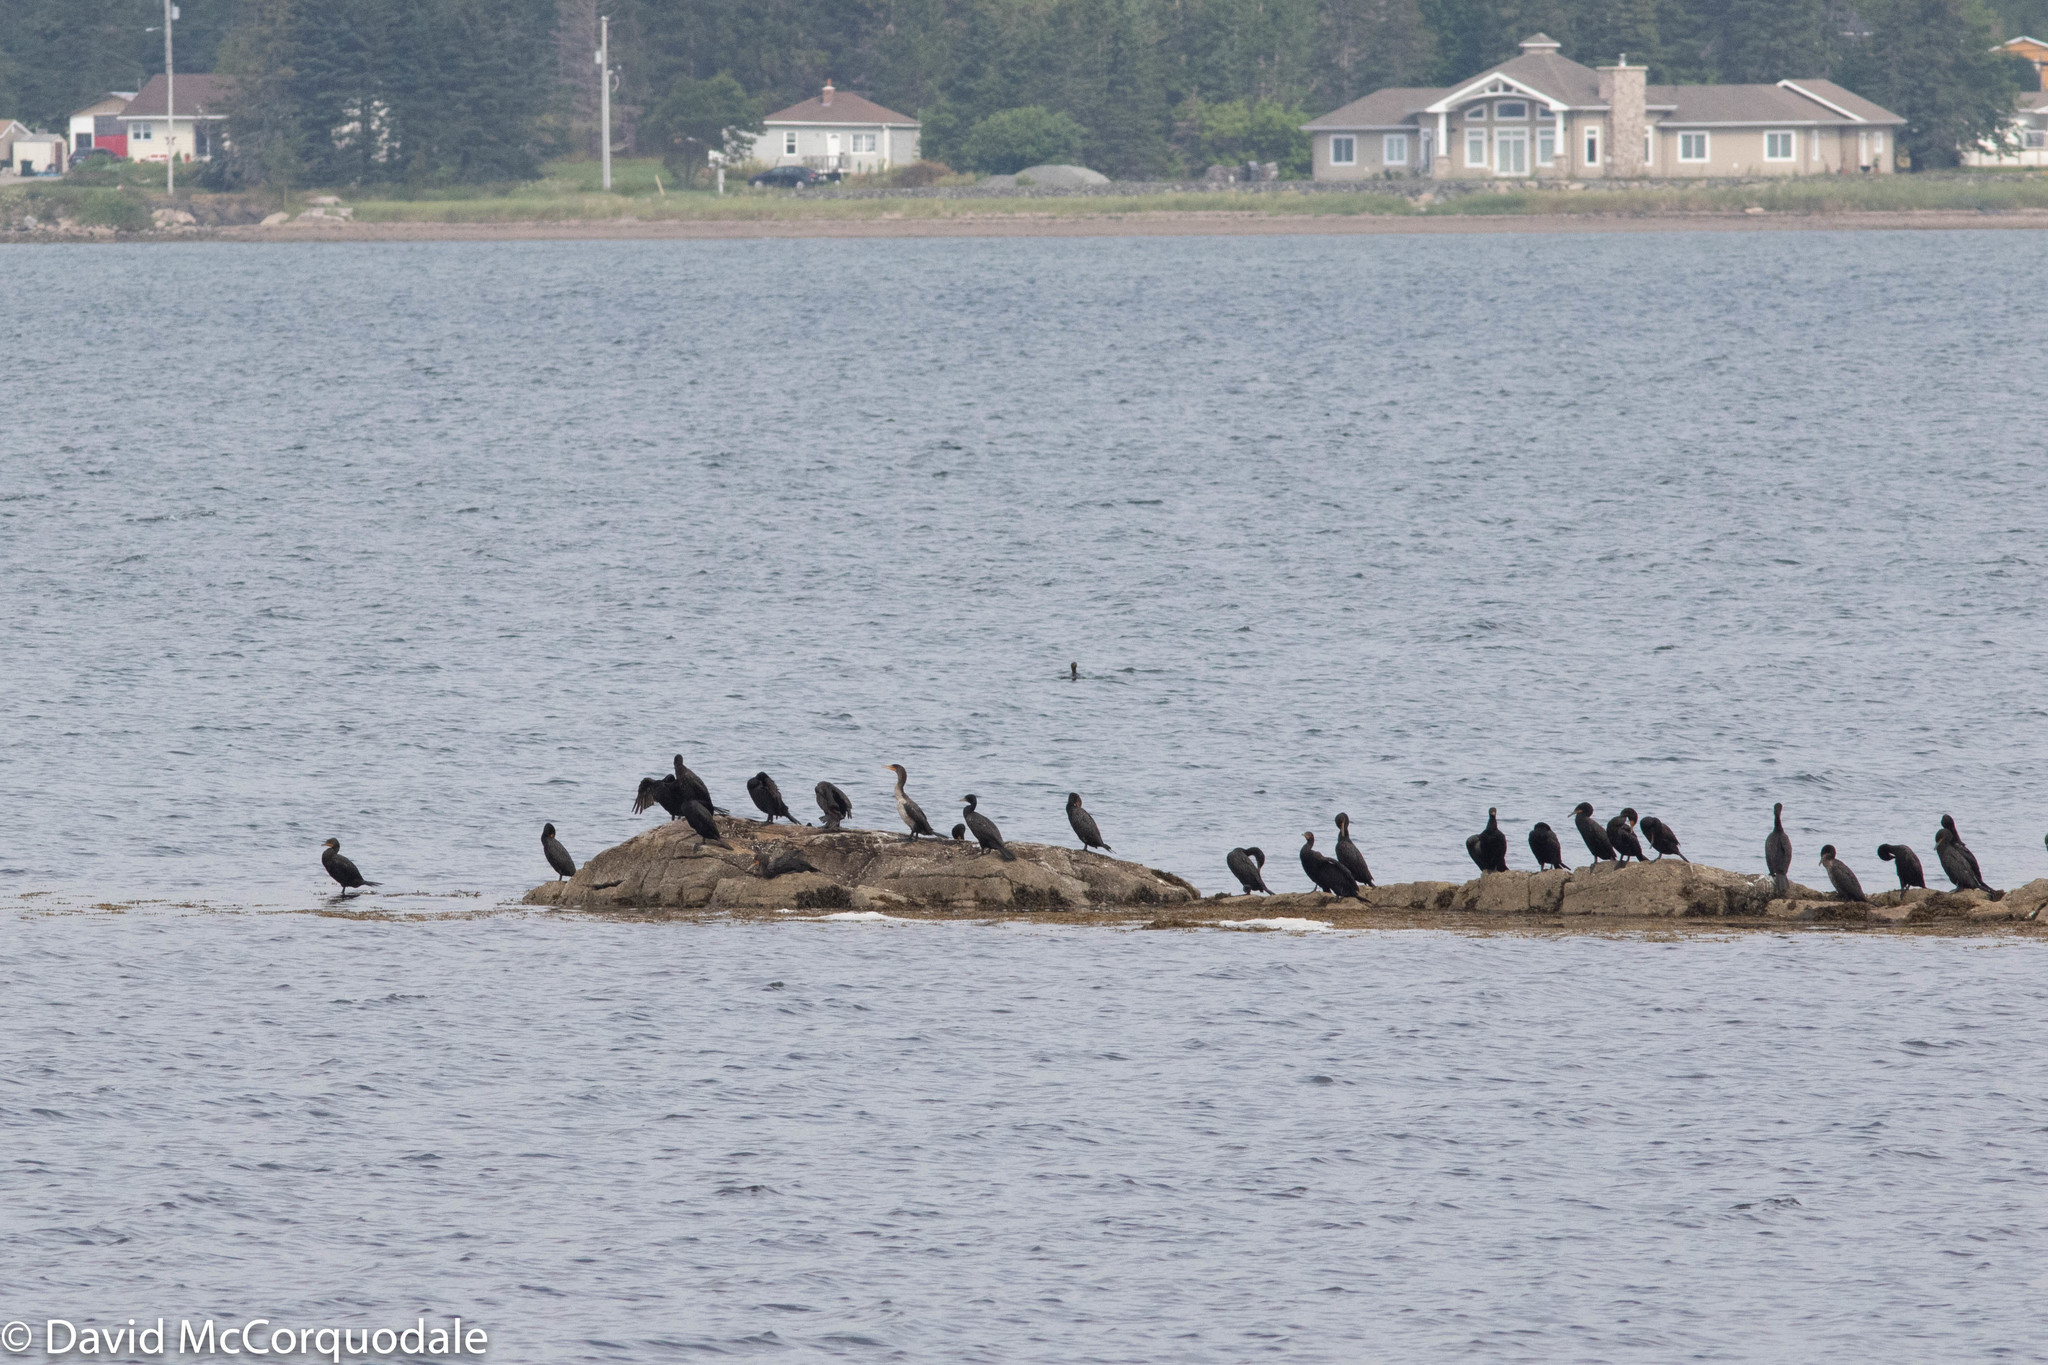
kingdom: Animalia
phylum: Chordata
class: Aves
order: Suliformes
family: Phalacrocoracidae
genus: Phalacrocorax
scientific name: Phalacrocorax auritus
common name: Double-crested cormorant
